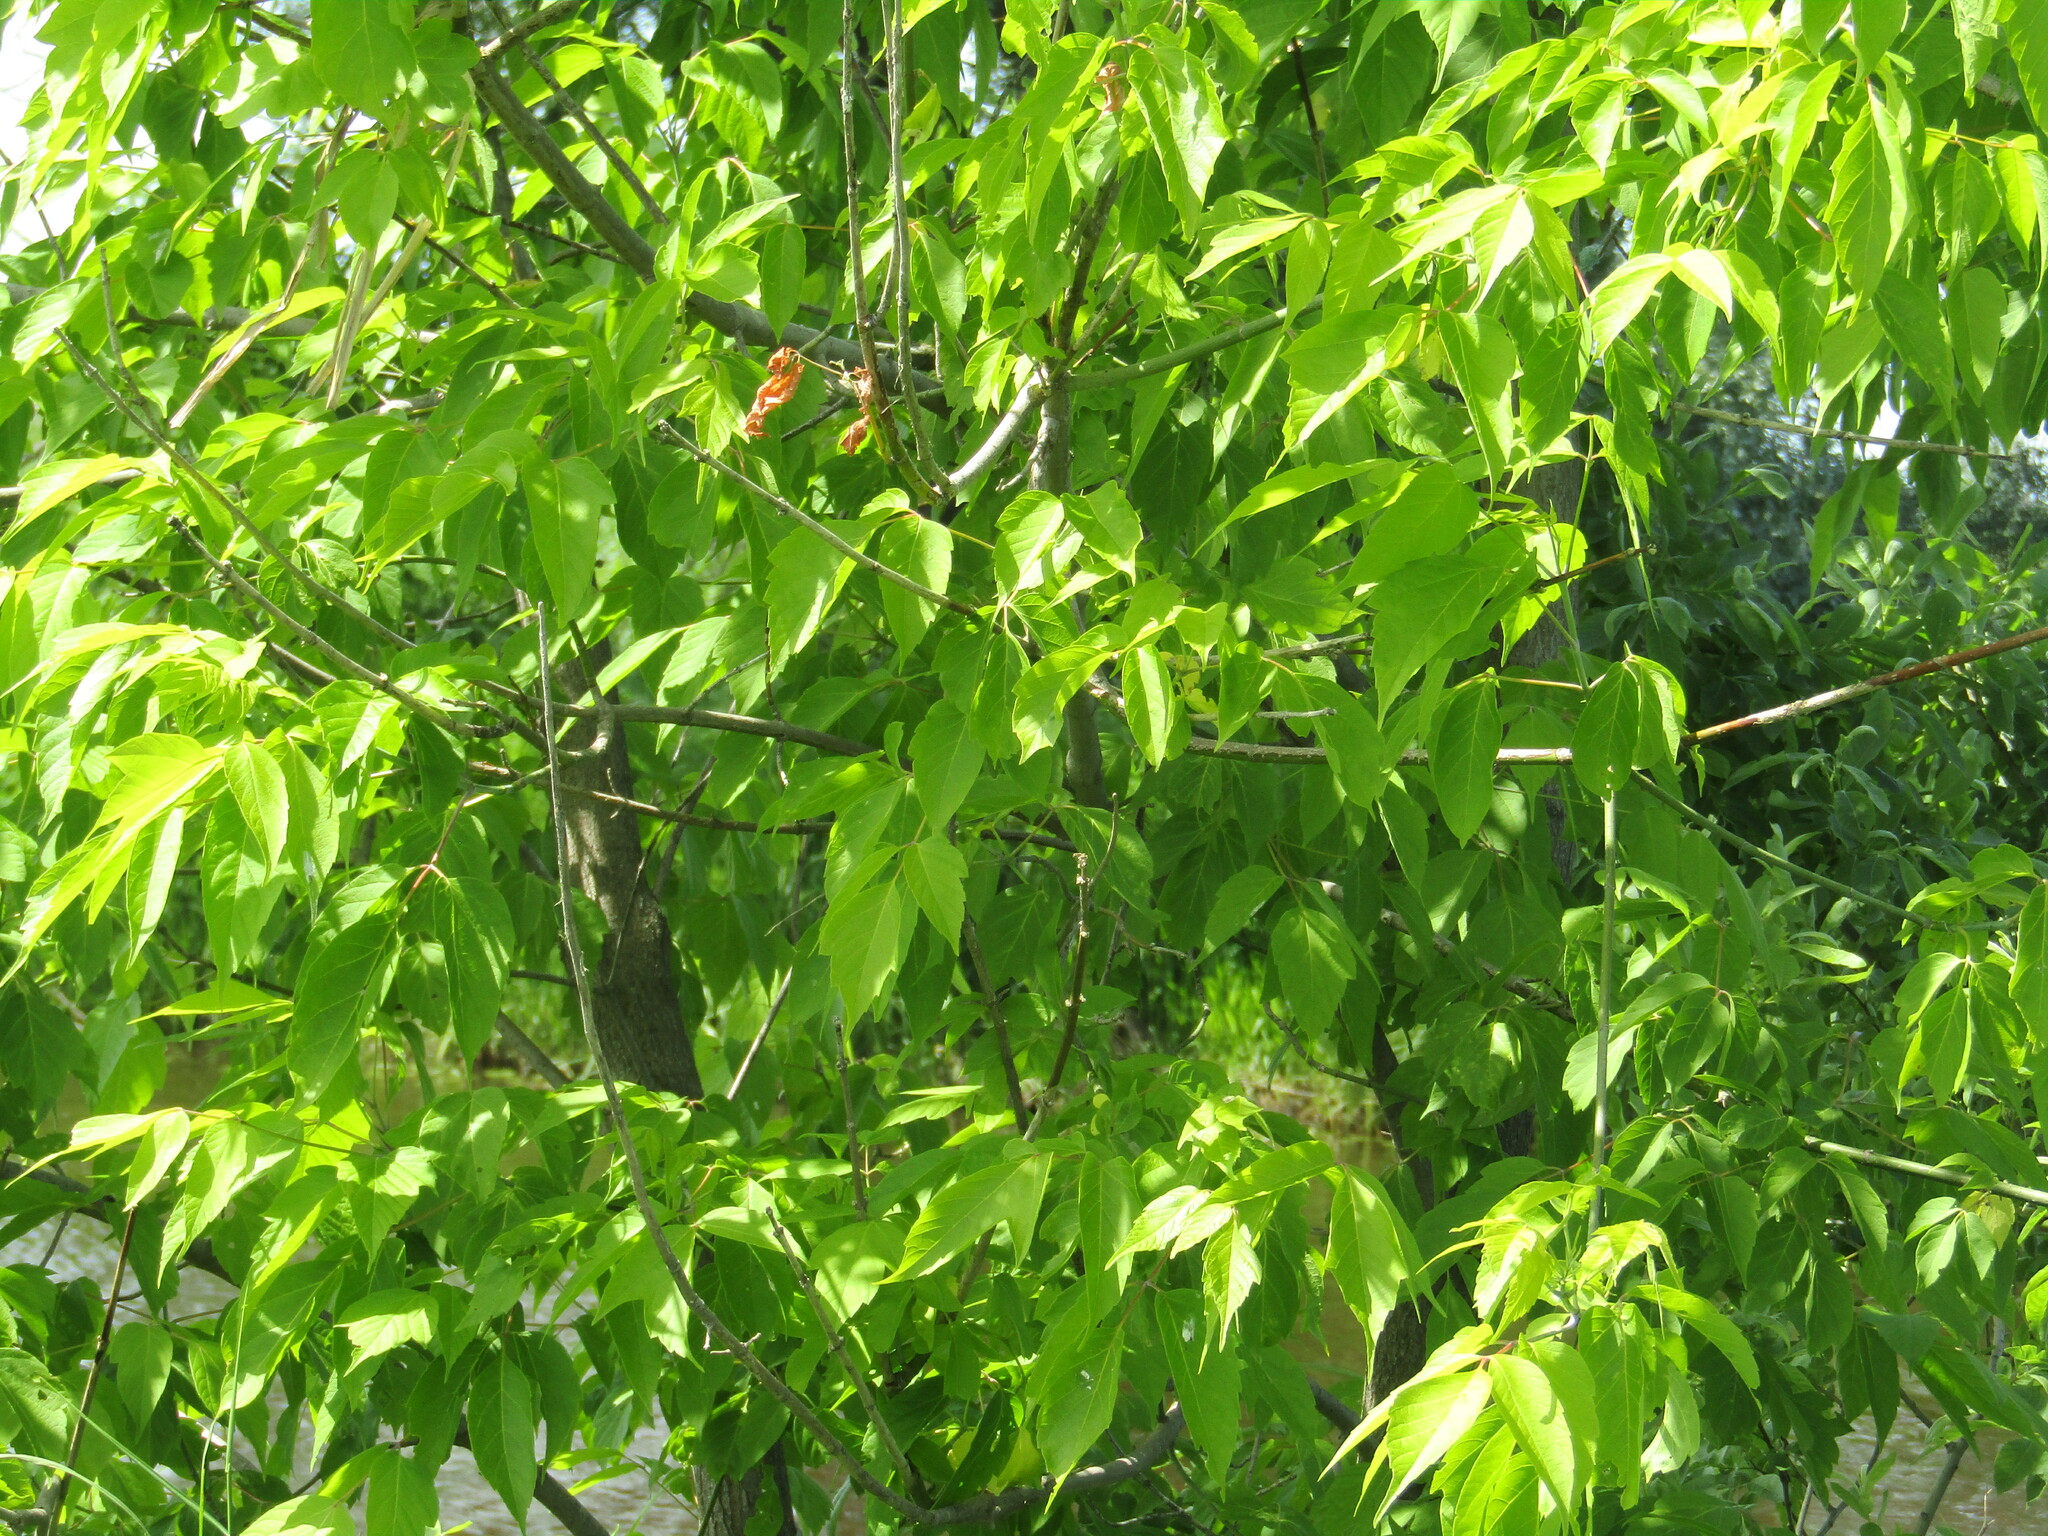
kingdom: Plantae
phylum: Tracheophyta
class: Magnoliopsida
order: Sapindales
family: Sapindaceae
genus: Acer
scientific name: Acer negundo
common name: Ashleaf maple
